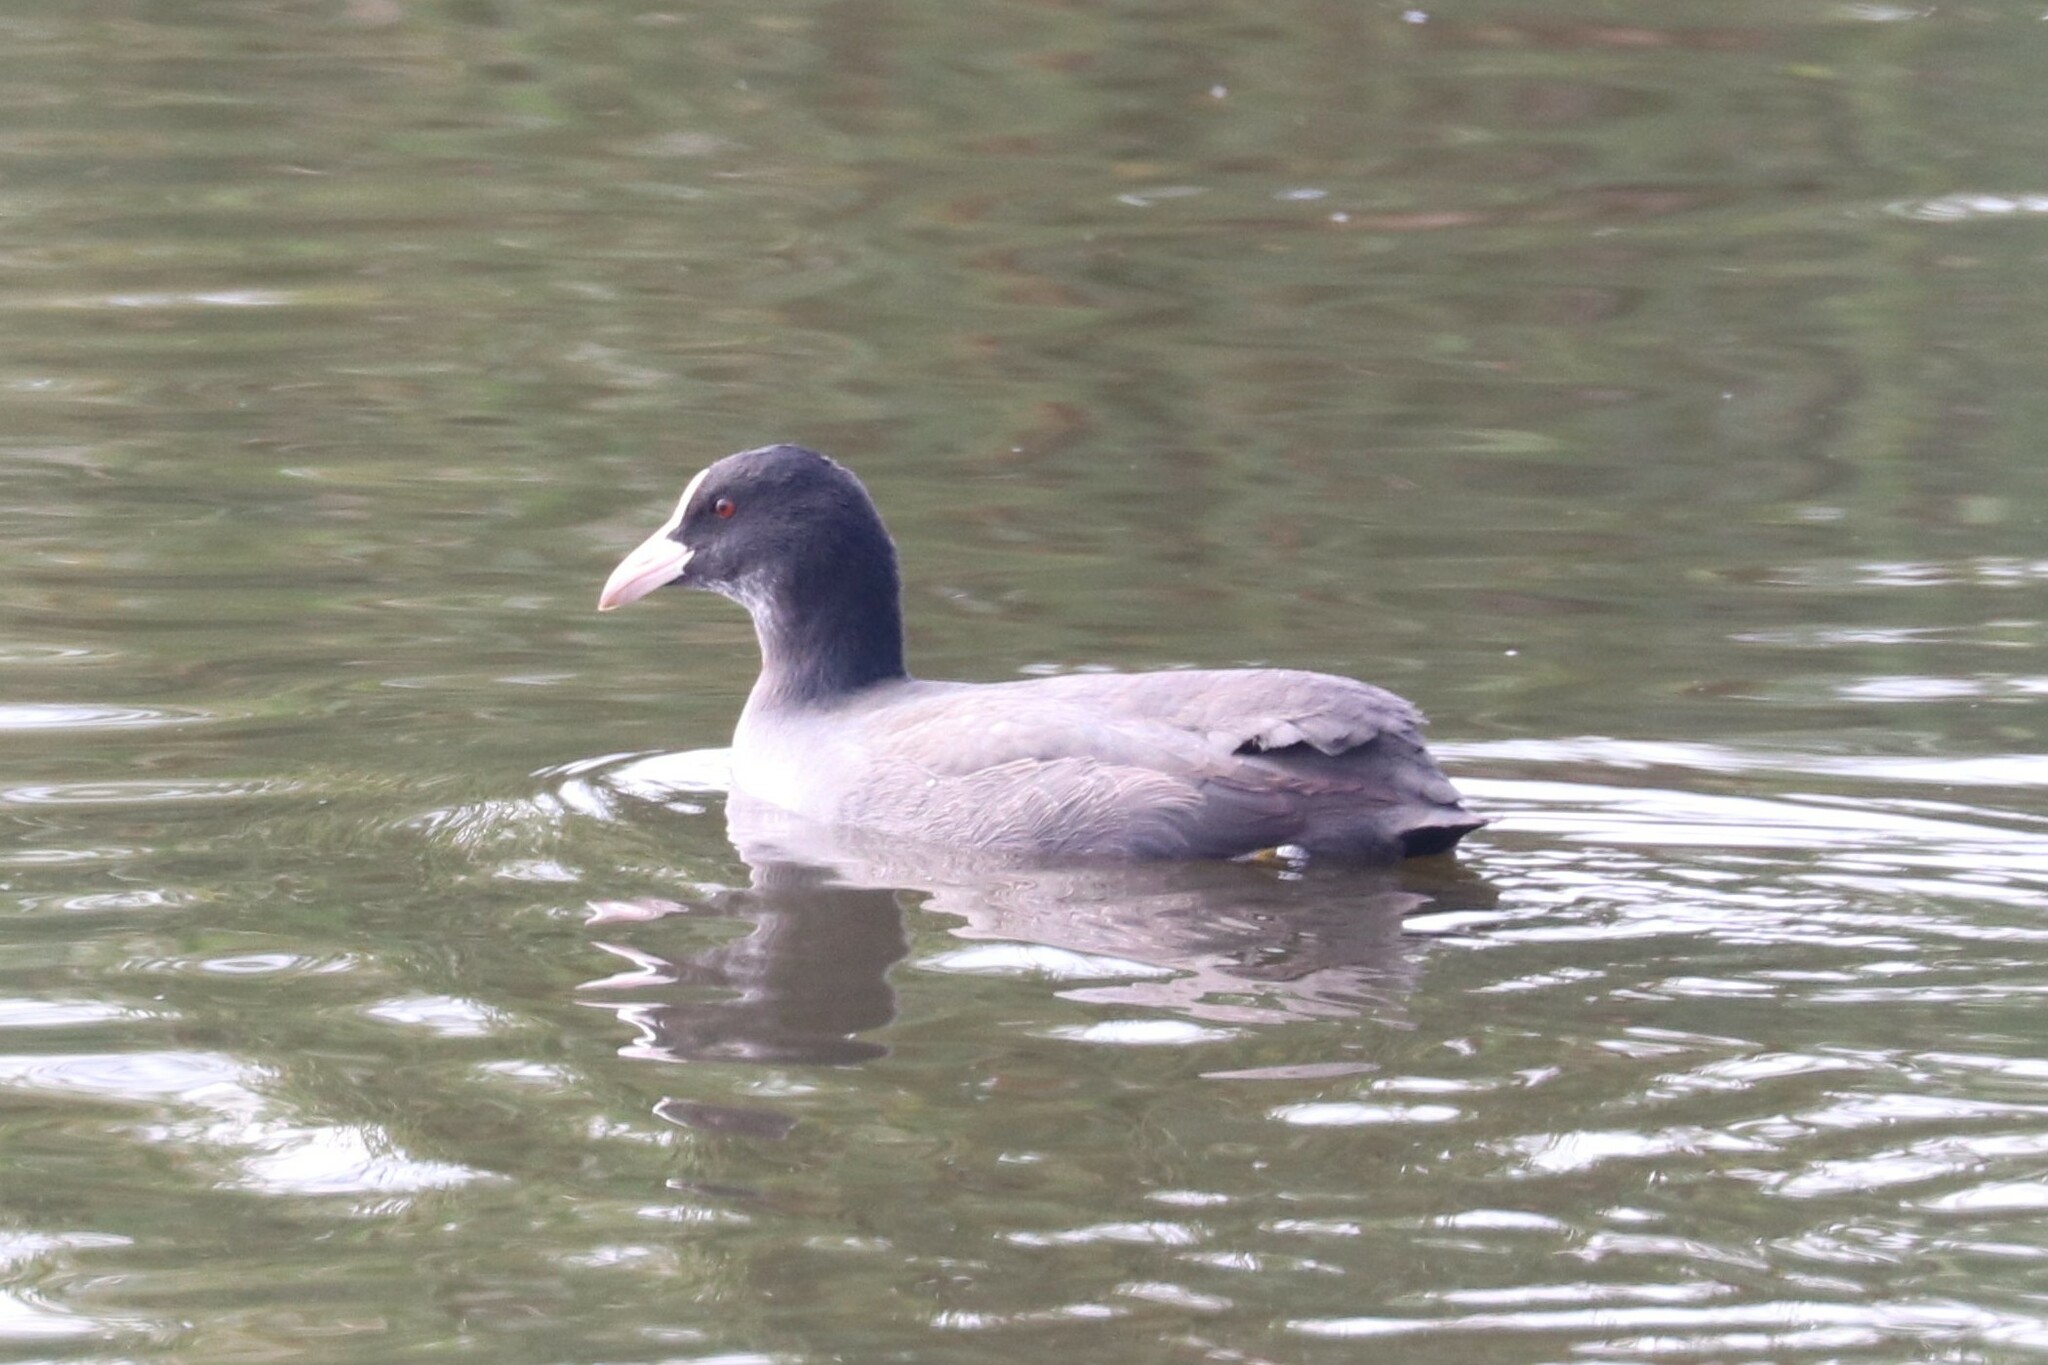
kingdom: Animalia
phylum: Chordata
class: Aves
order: Gruiformes
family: Rallidae
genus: Fulica
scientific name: Fulica atra
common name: Eurasian coot
